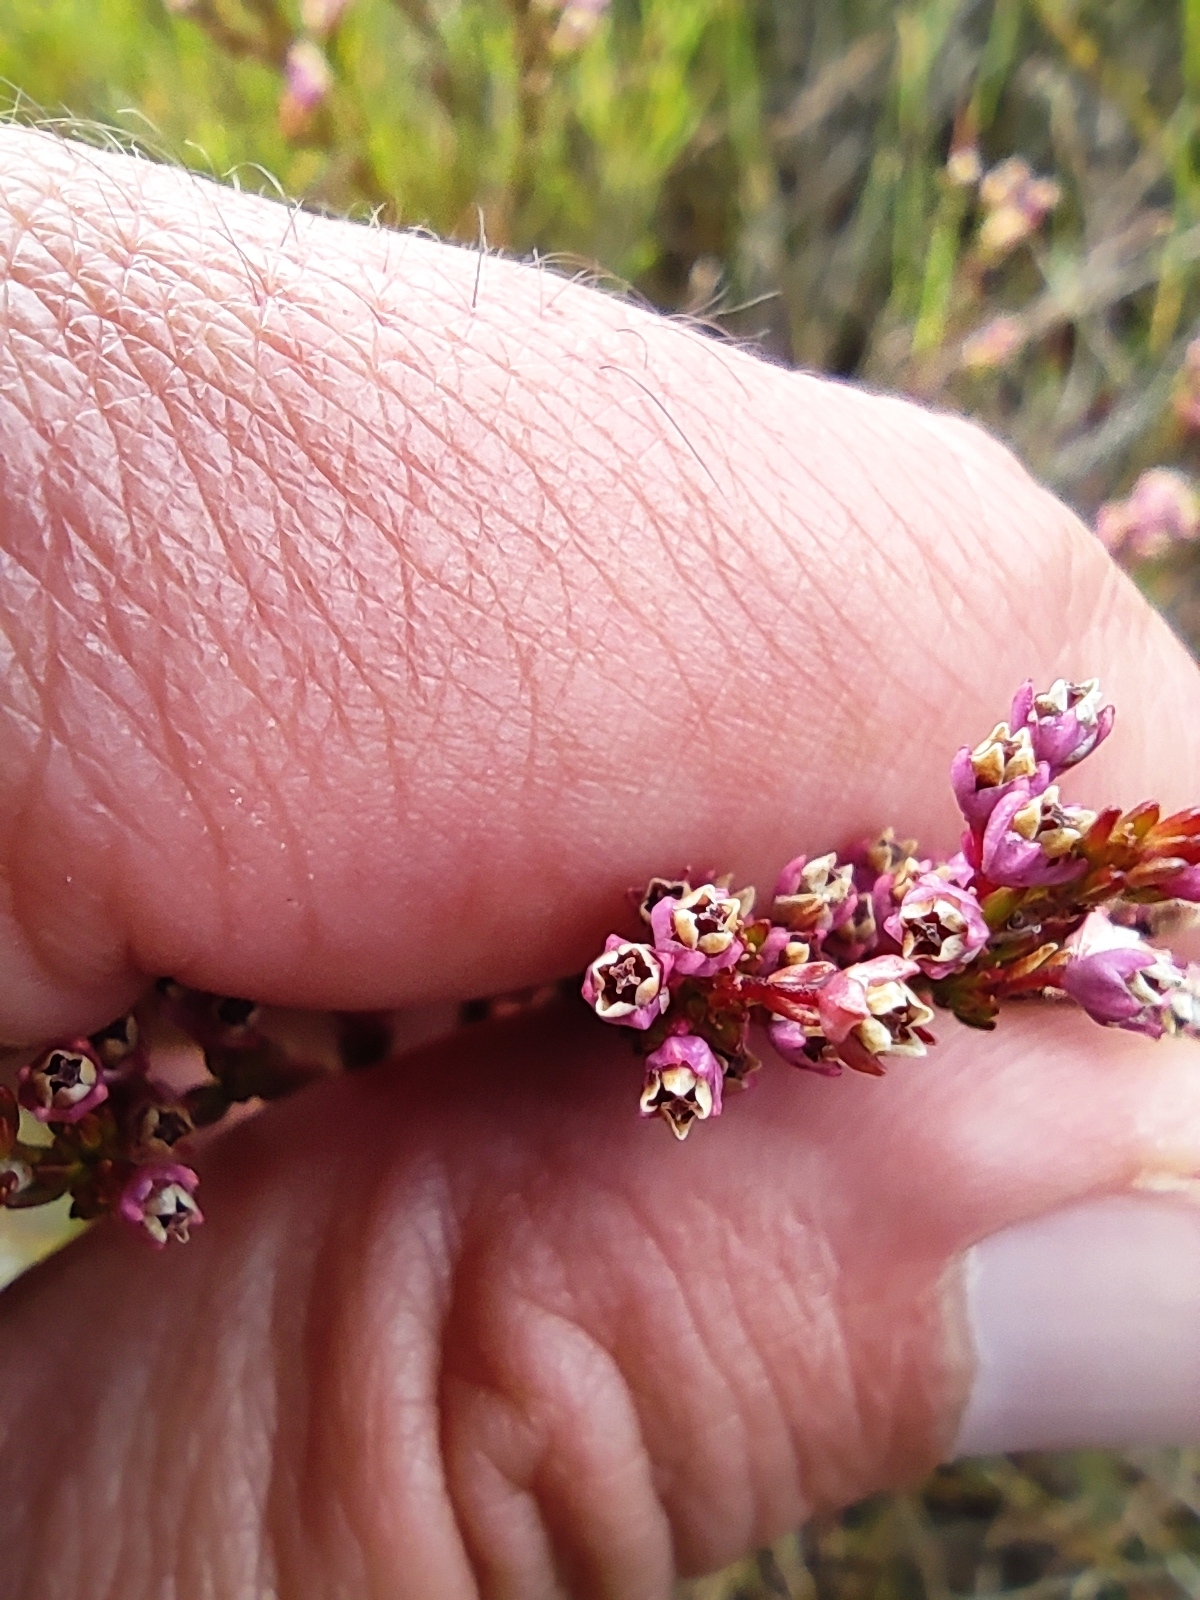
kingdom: Plantae
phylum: Tracheophyta
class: Magnoliopsida
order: Ericales
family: Ericaceae
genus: Erica
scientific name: Erica gnaphaloides
